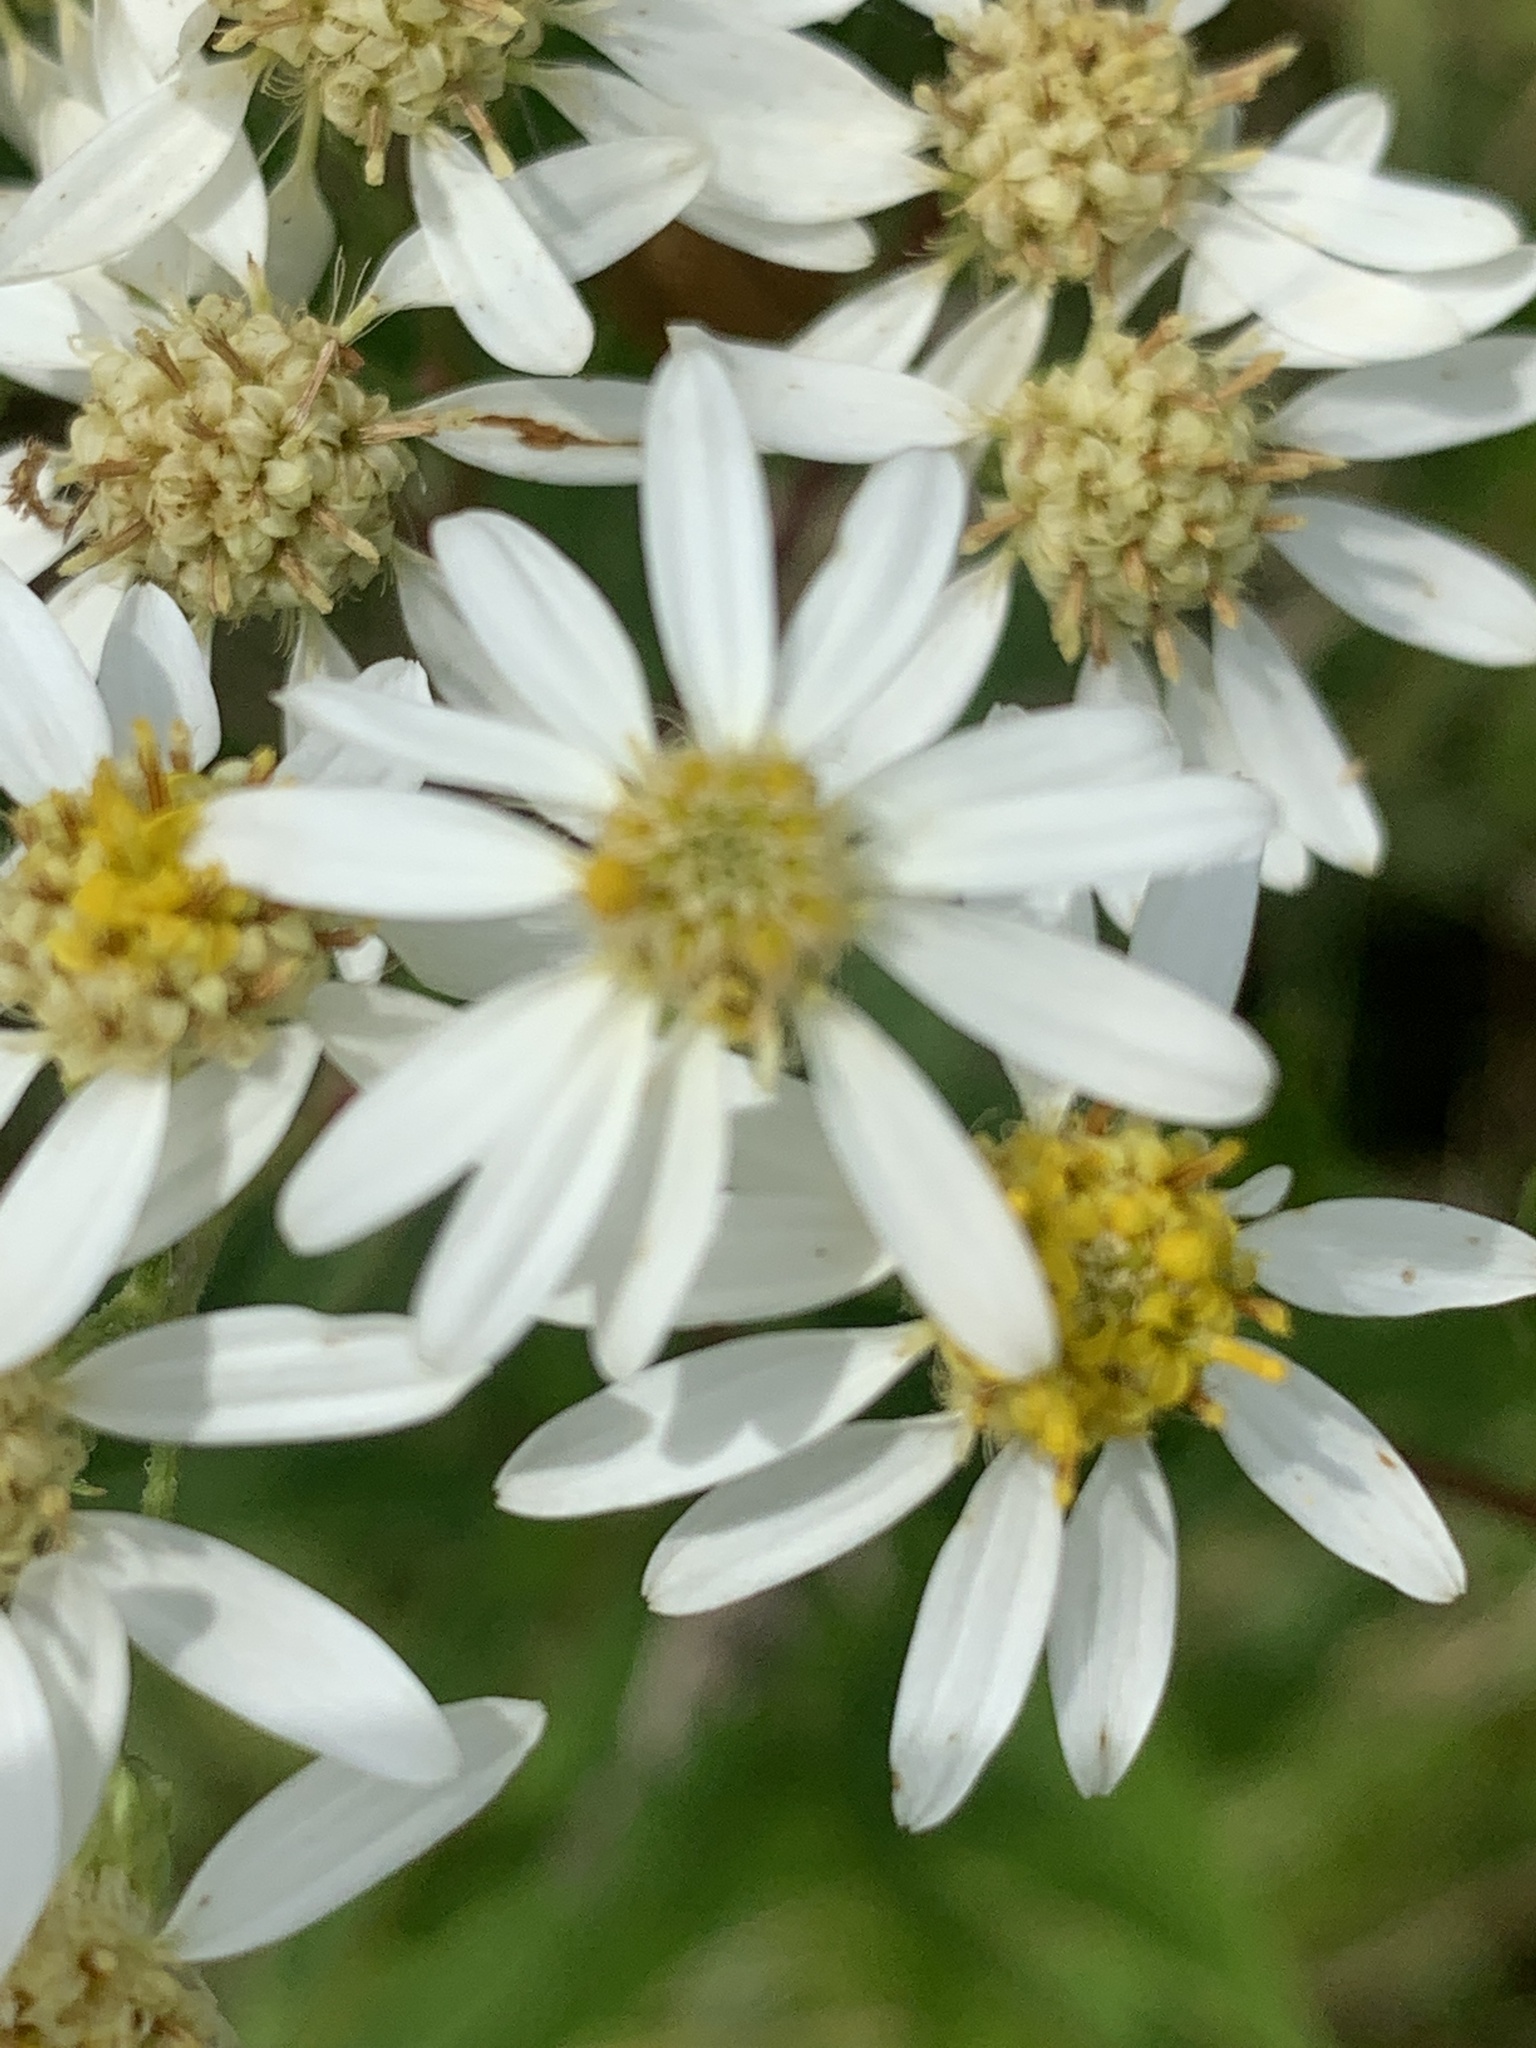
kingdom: Plantae
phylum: Tracheophyta
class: Magnoliopsida
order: Asterales
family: Asteraceae
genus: Doellingeria
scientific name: Doellingeria umbellata
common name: Flat-top white aster
